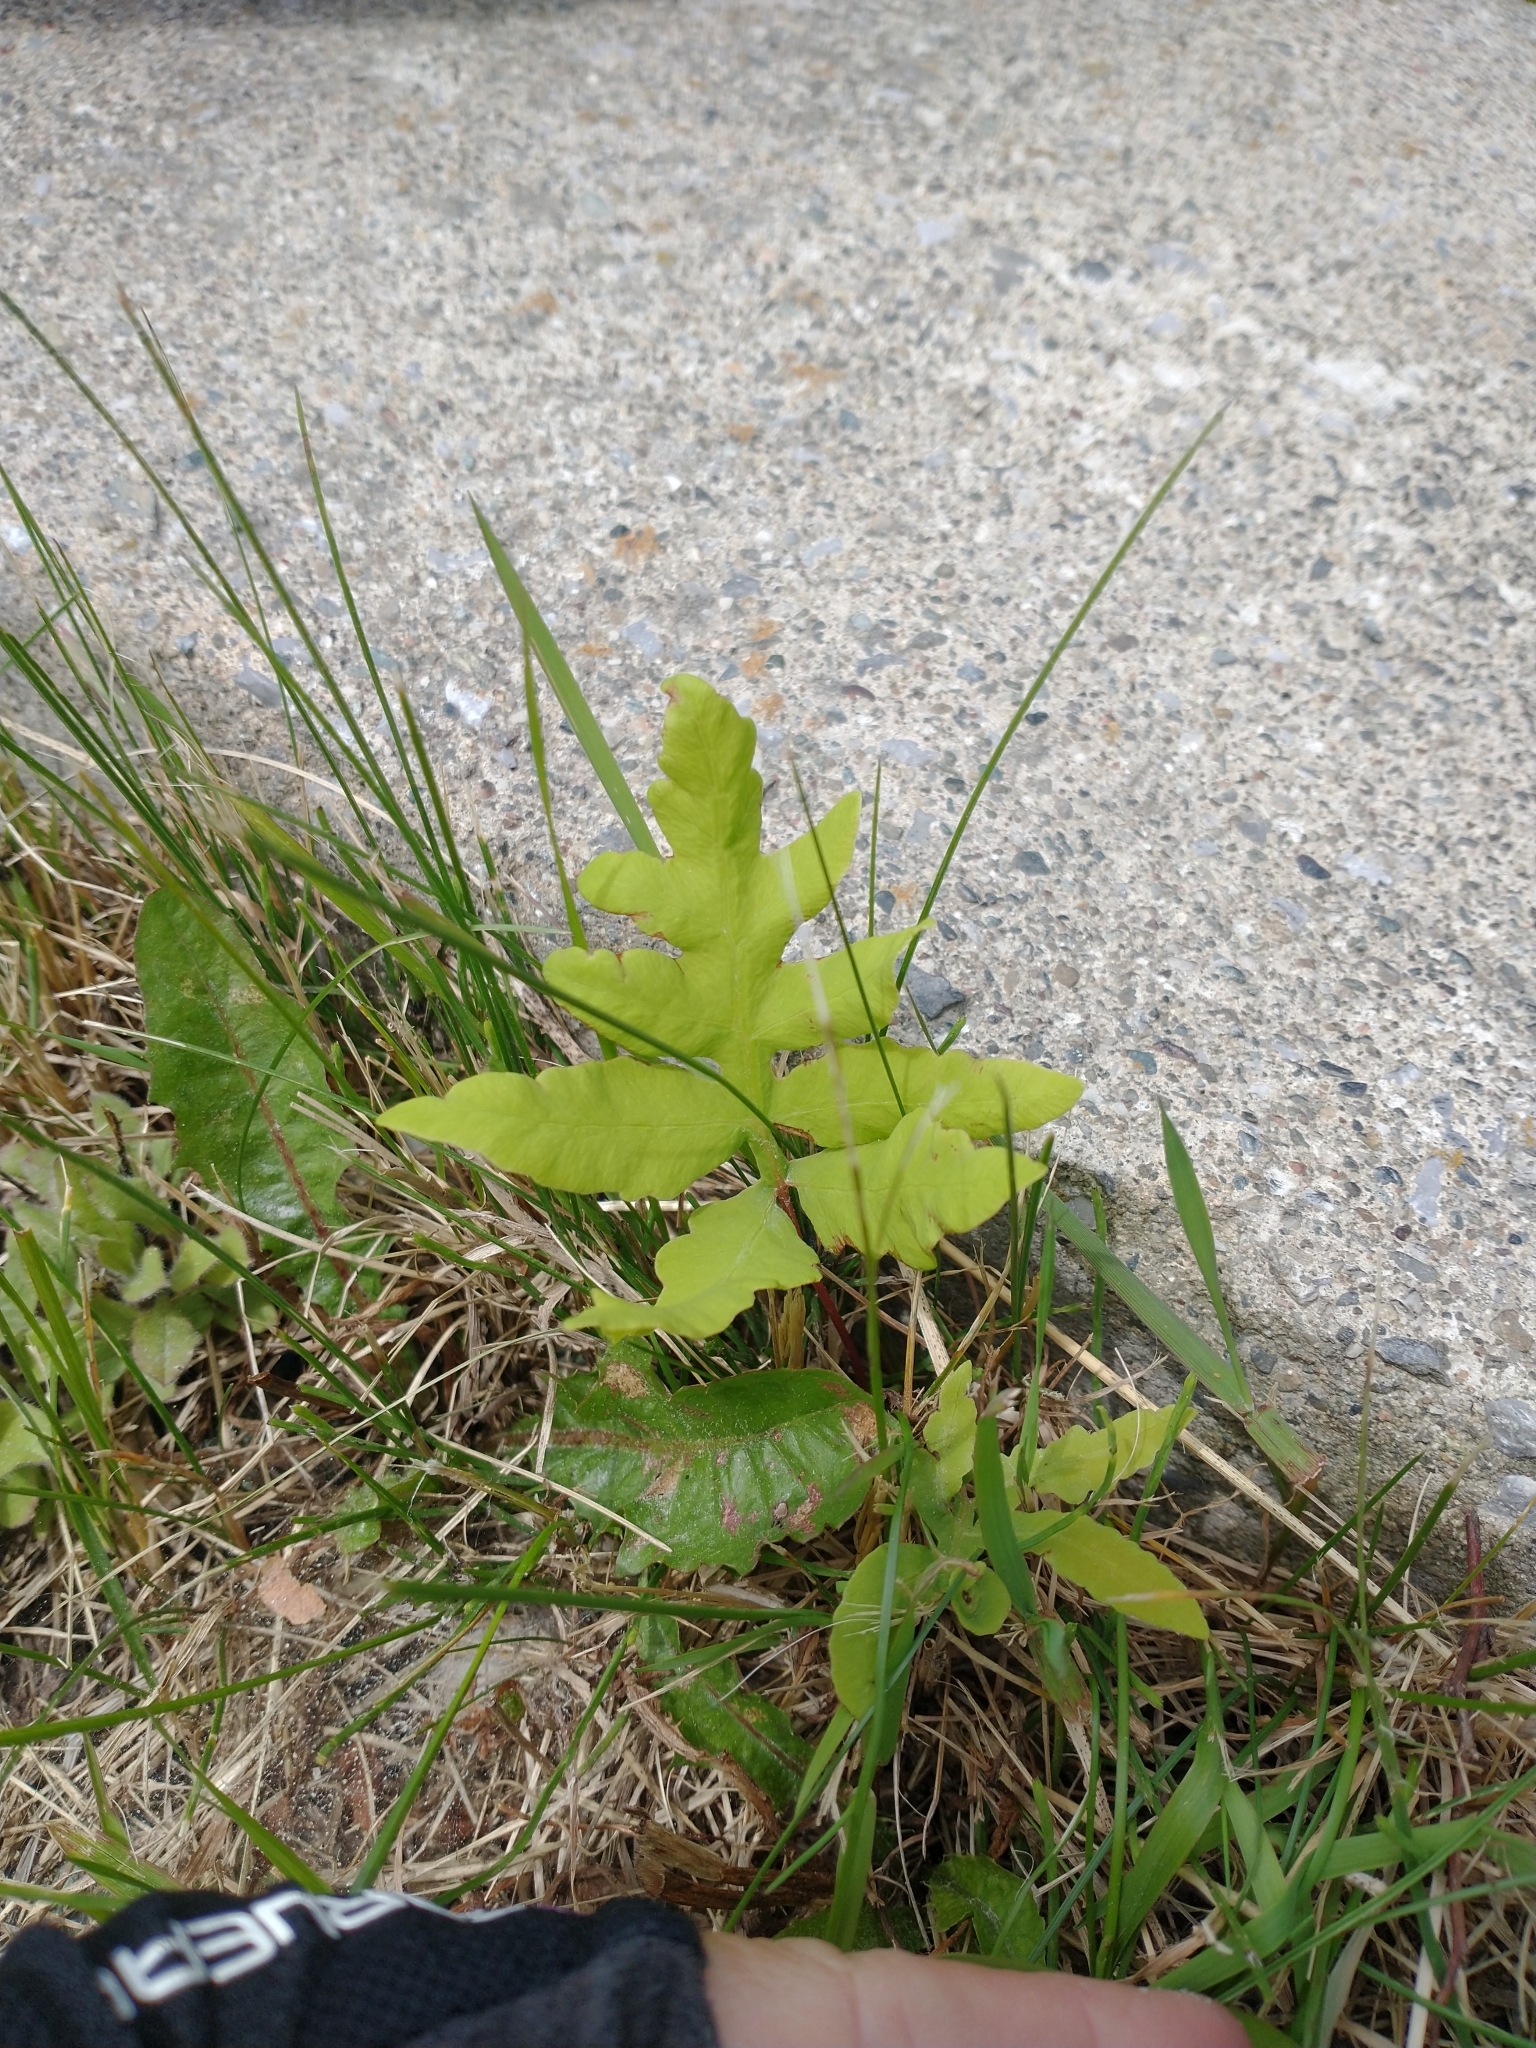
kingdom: Plantae
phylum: Tracheophyta
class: Polypodiopsida
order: Polypodiales
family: Onocleaceae
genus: Onoclea
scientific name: Onoclea sensibilis
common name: Sensitive fern
